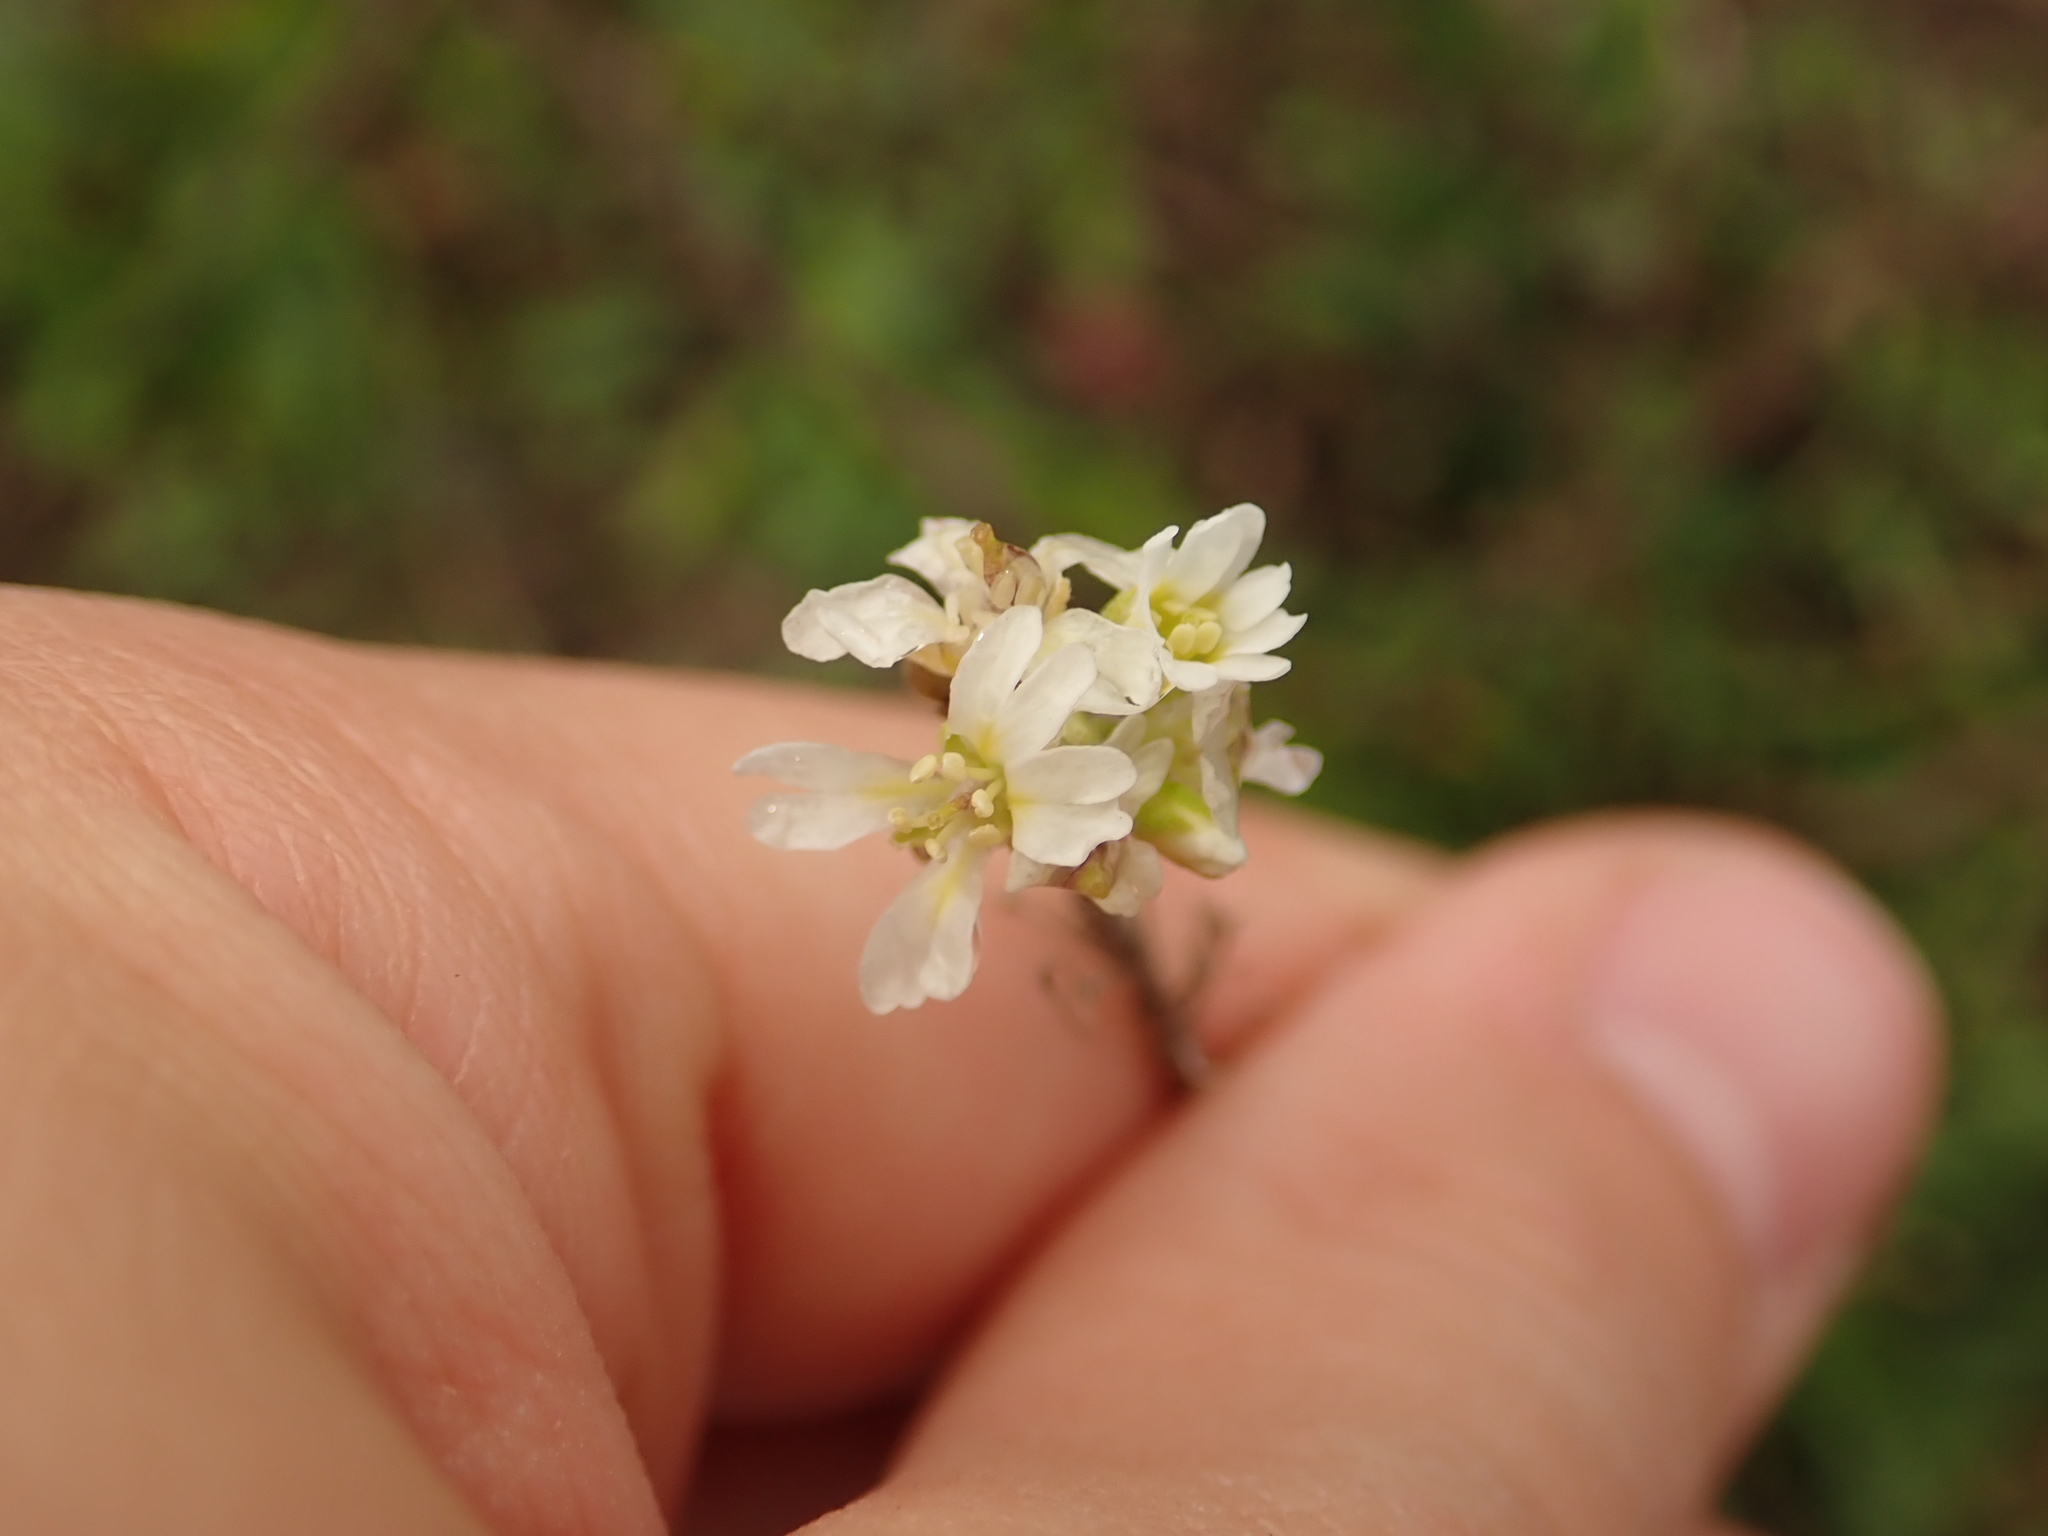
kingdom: Plantae
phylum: Tracheophyta
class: Magnoliopsida
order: Brassicales
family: Brassicaceae
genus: Berteroa
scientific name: Berteroa incana
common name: Hoary alison
